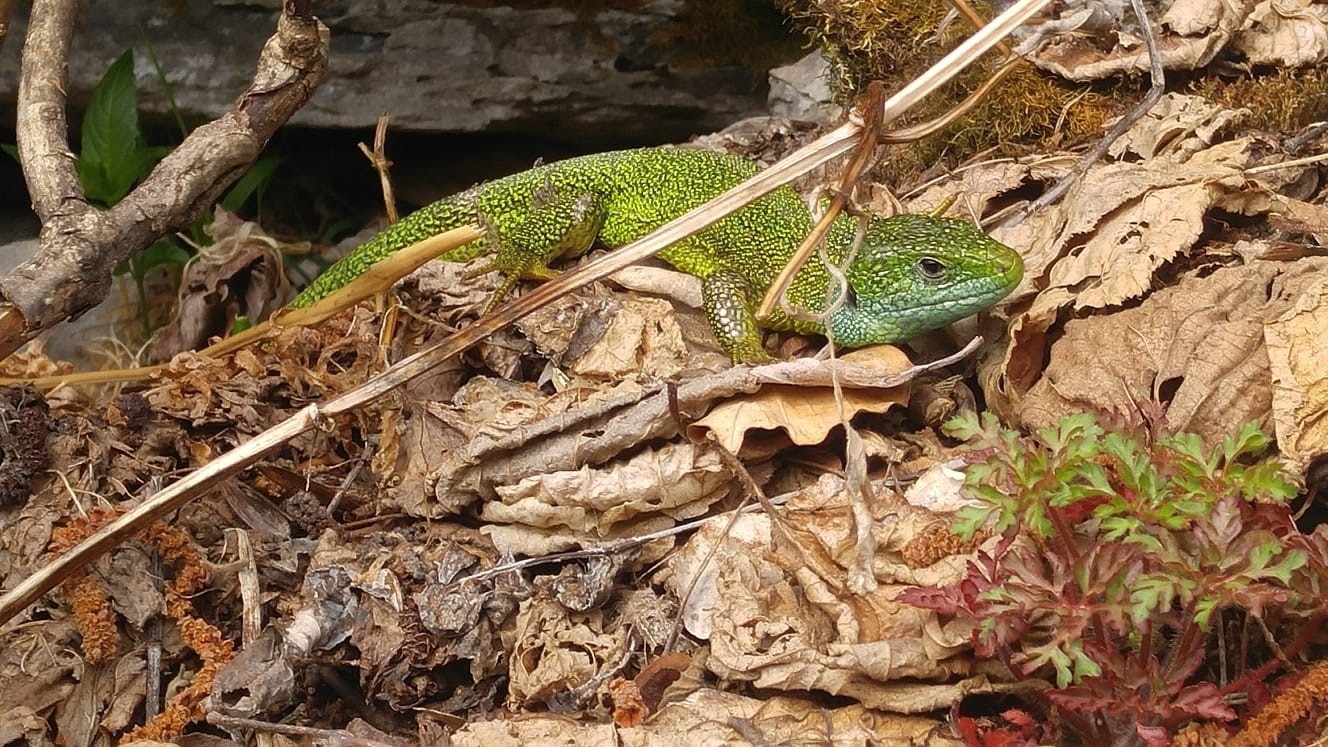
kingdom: Animalia
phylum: Chordata
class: Squamata
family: Lacertidae
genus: Lacerta
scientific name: Lacerta bilineata
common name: Western green lizard
